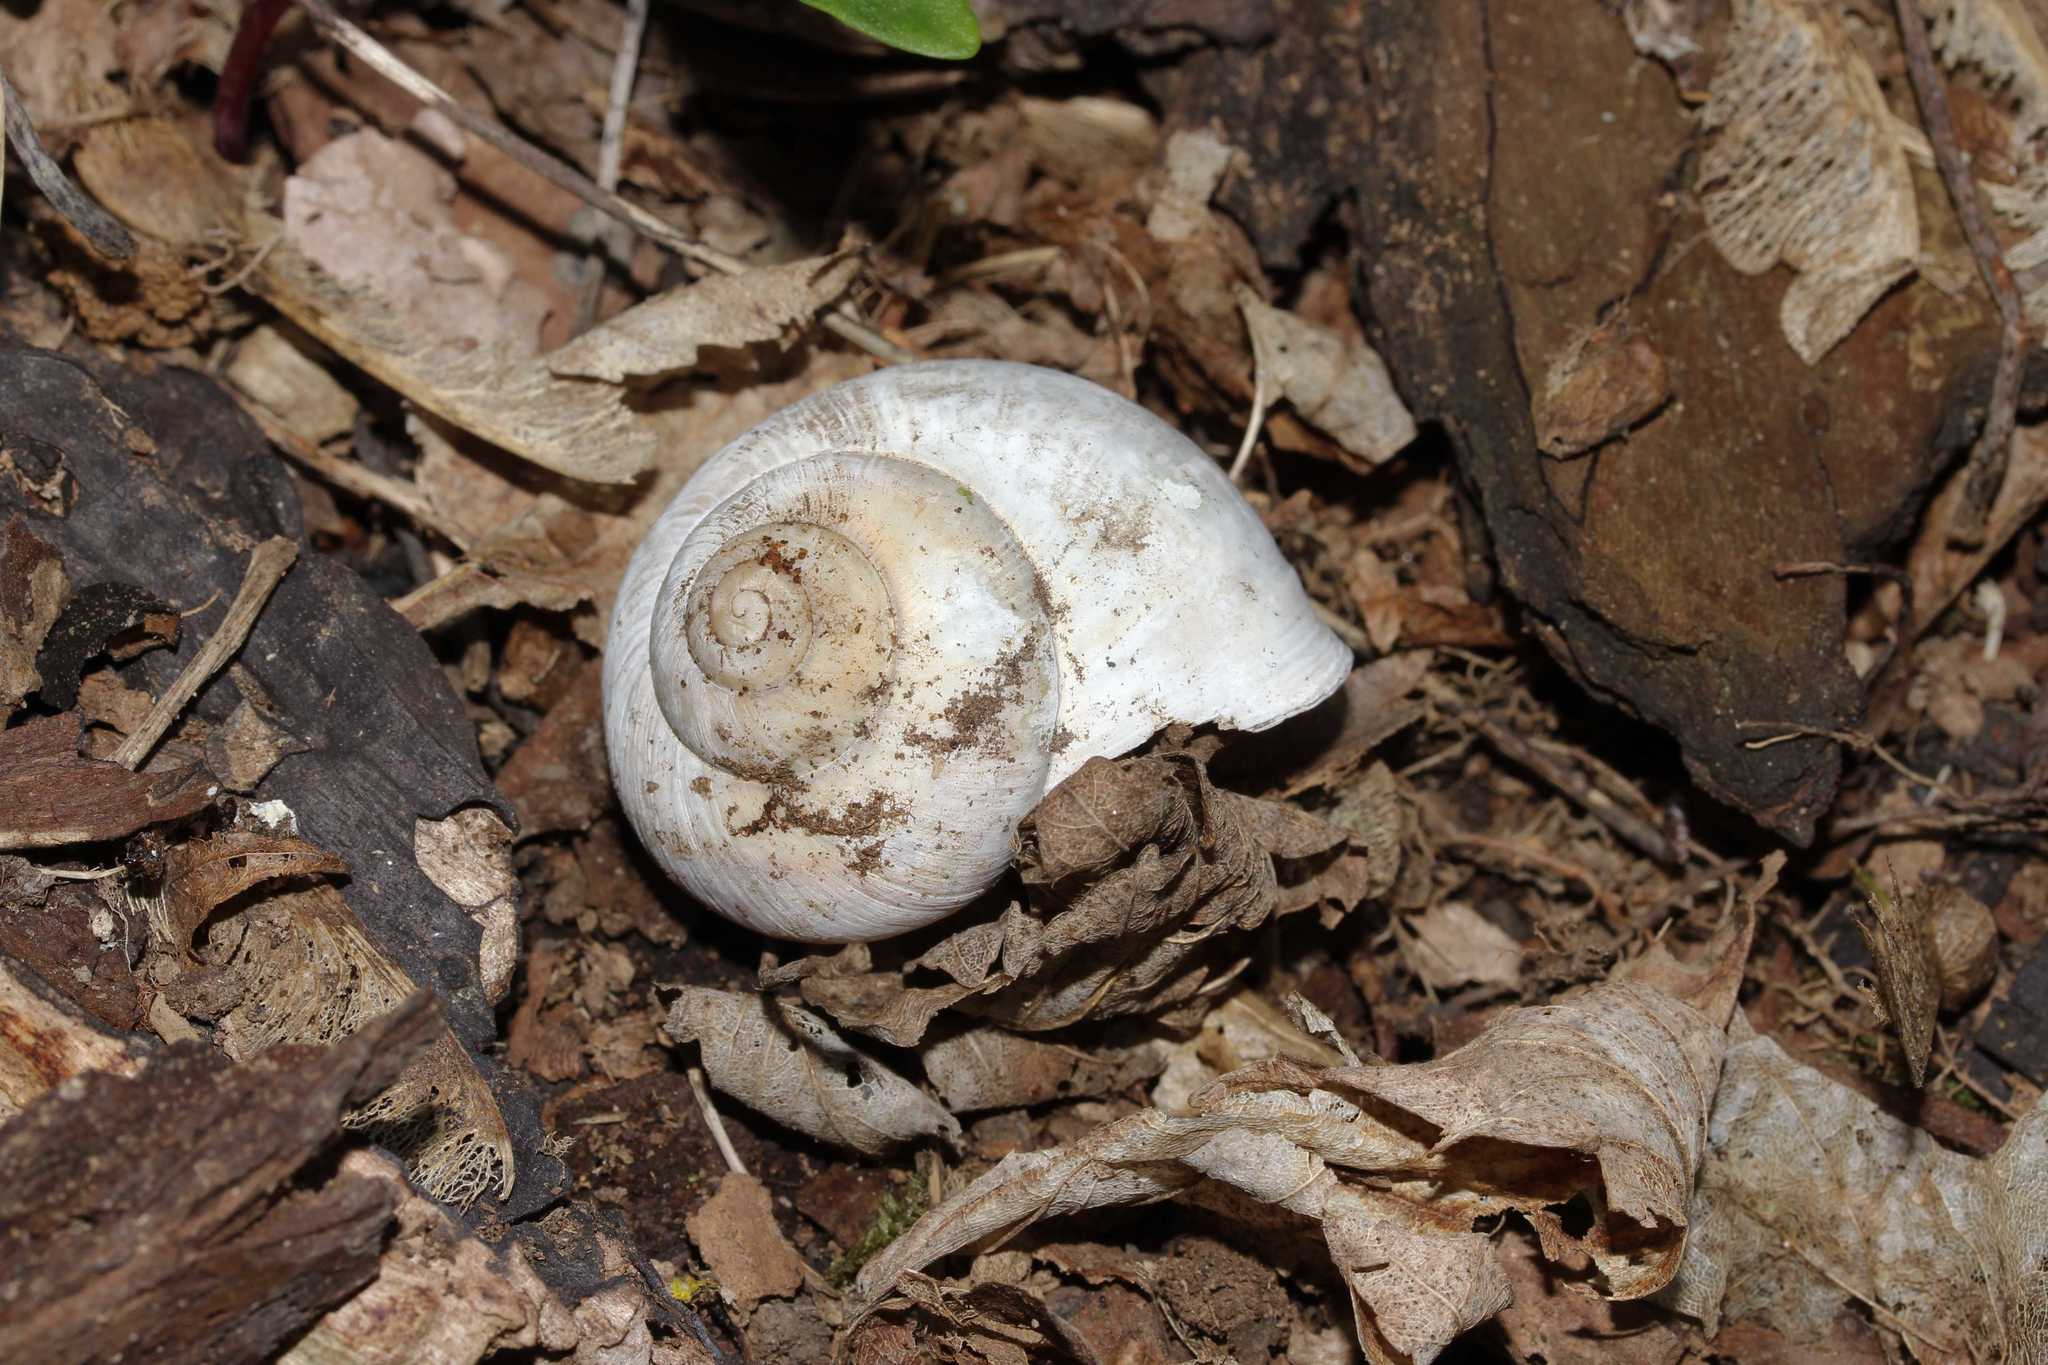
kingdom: Animalia
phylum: Mollusca
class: Gastropoda
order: Stylommatophora
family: Helicidae
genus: Helix
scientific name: Helix pomatia
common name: Roman snail
